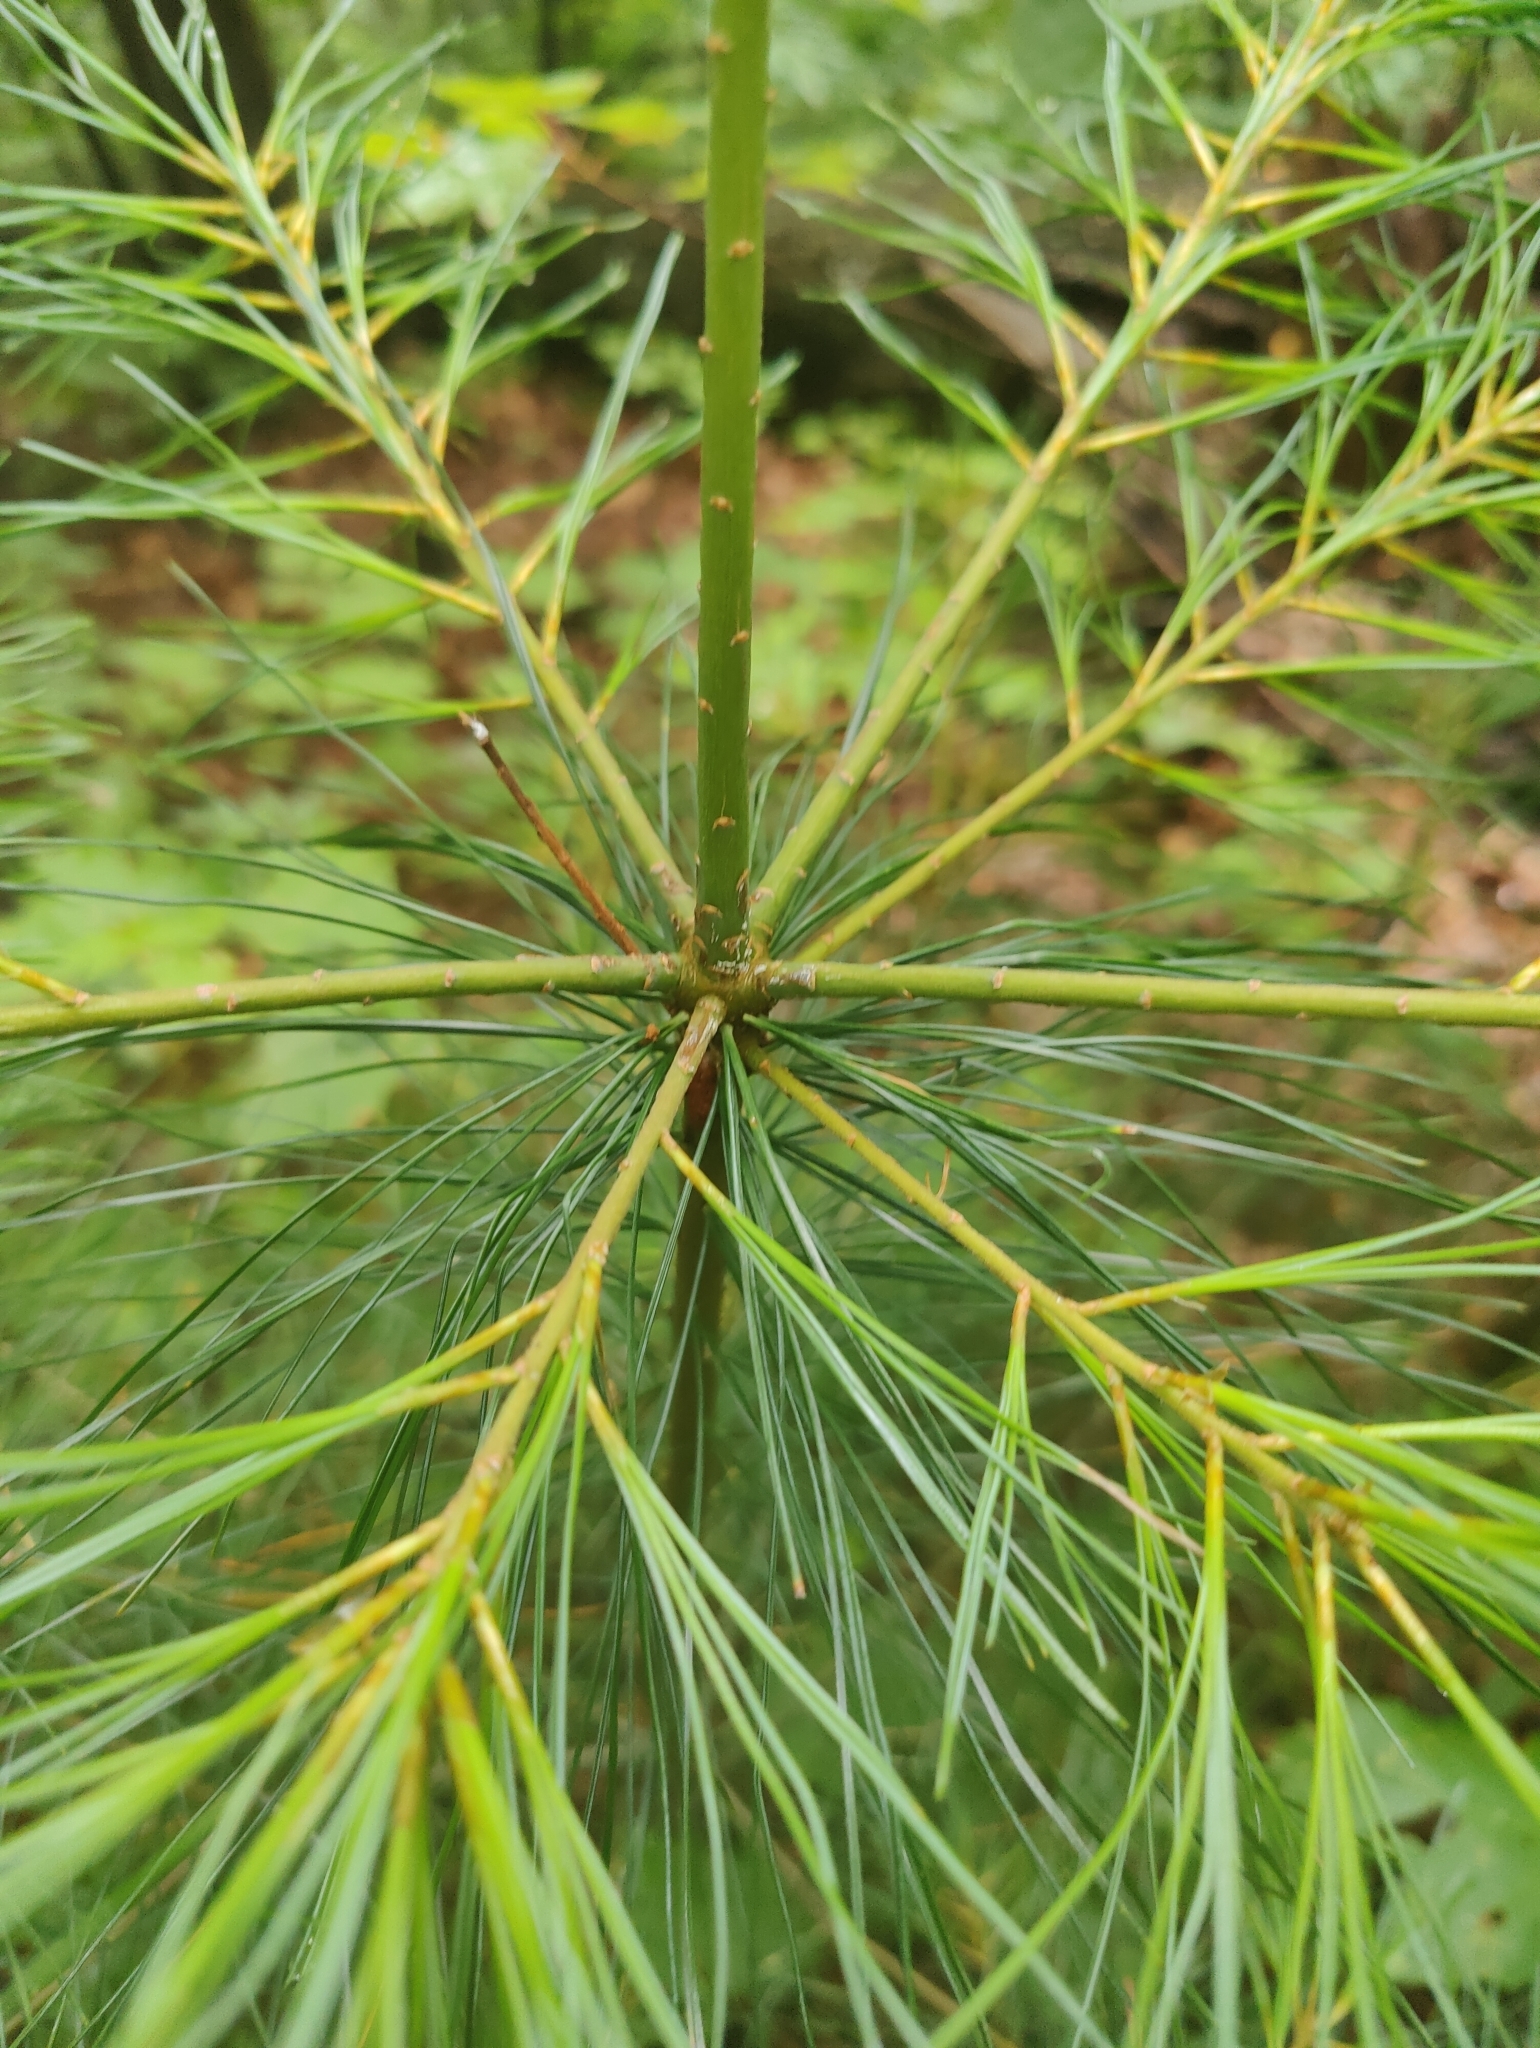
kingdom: Plantae
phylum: Tracheophyta
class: Pinopsida
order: Pinales
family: Pinaceae
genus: Pinus
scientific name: Pinus strobus
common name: Weymouth pine
